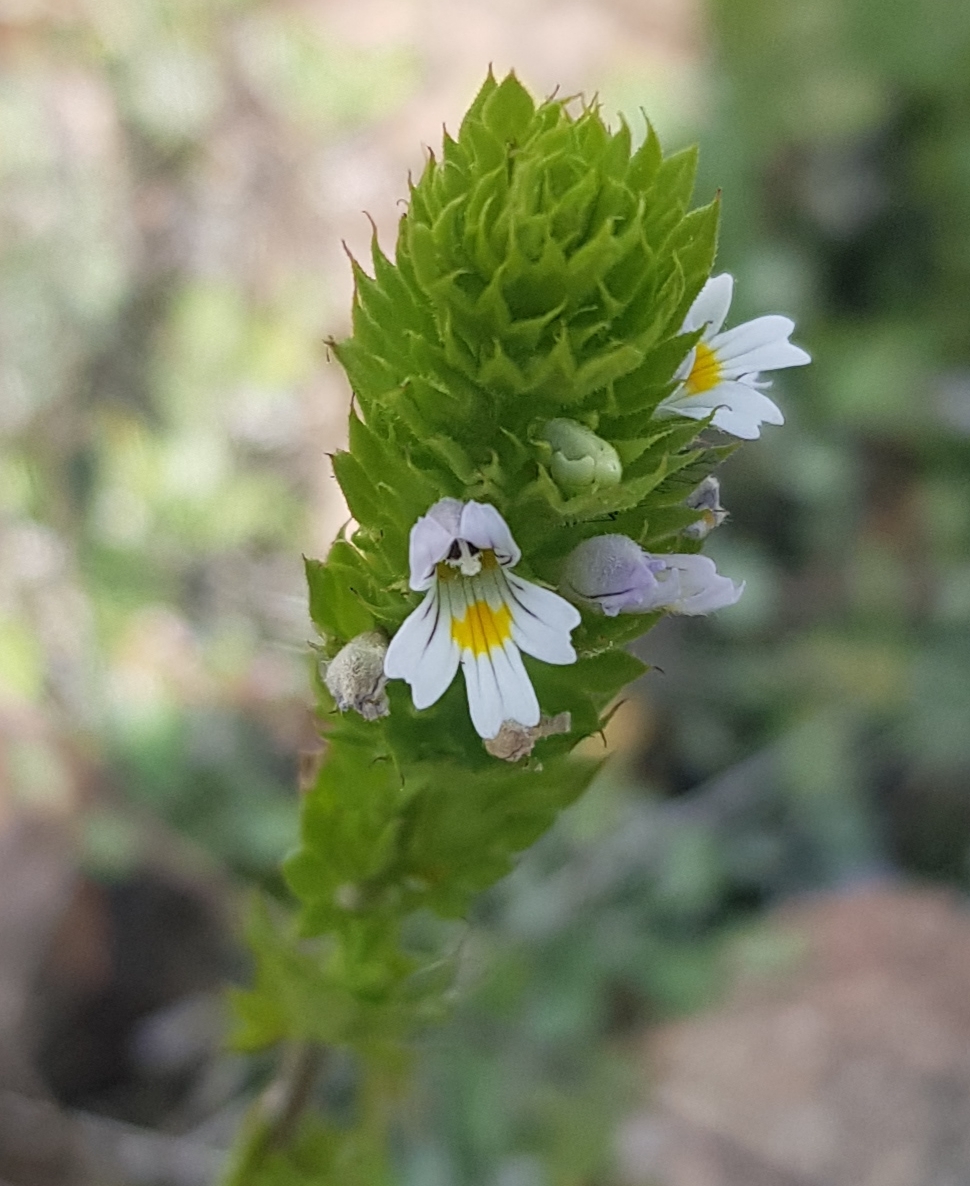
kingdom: Plantae
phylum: Tracheophyta
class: Magnoliopsida
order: Lamiales
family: Orobanchaceae
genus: Euphrasia
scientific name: Euphrasia pectinata
